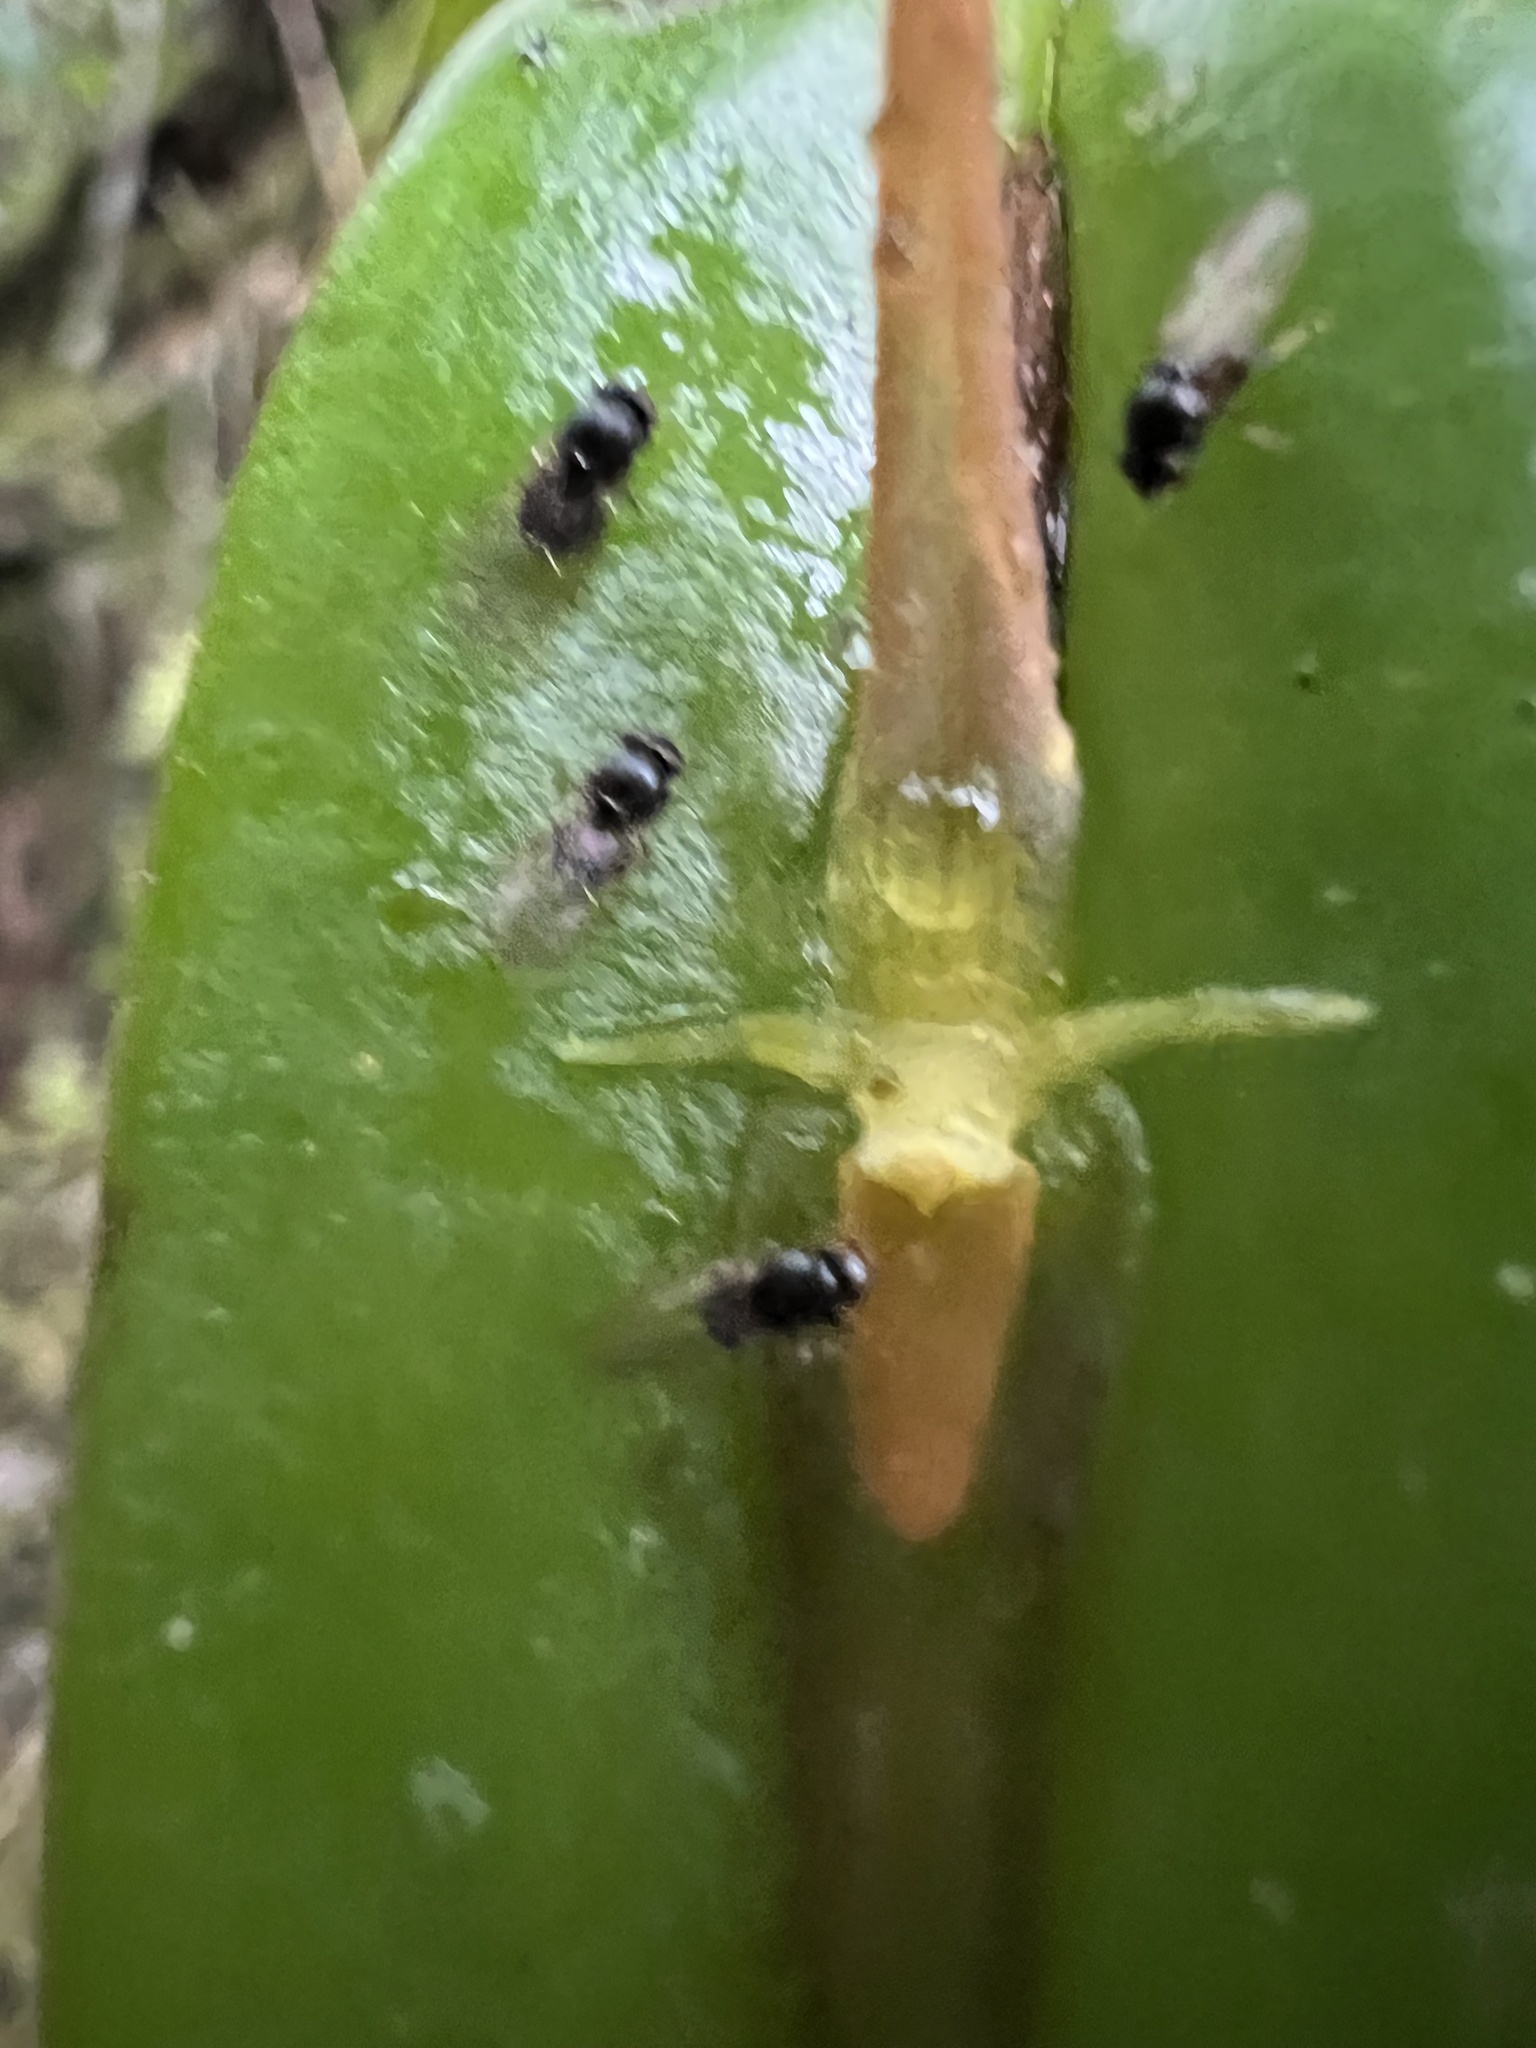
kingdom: Plantae
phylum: Tracheophyta
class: Liliopsida
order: Asparagales
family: Orchidaceae
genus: Pleurothallis
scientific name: Pleurothallis microcardia
